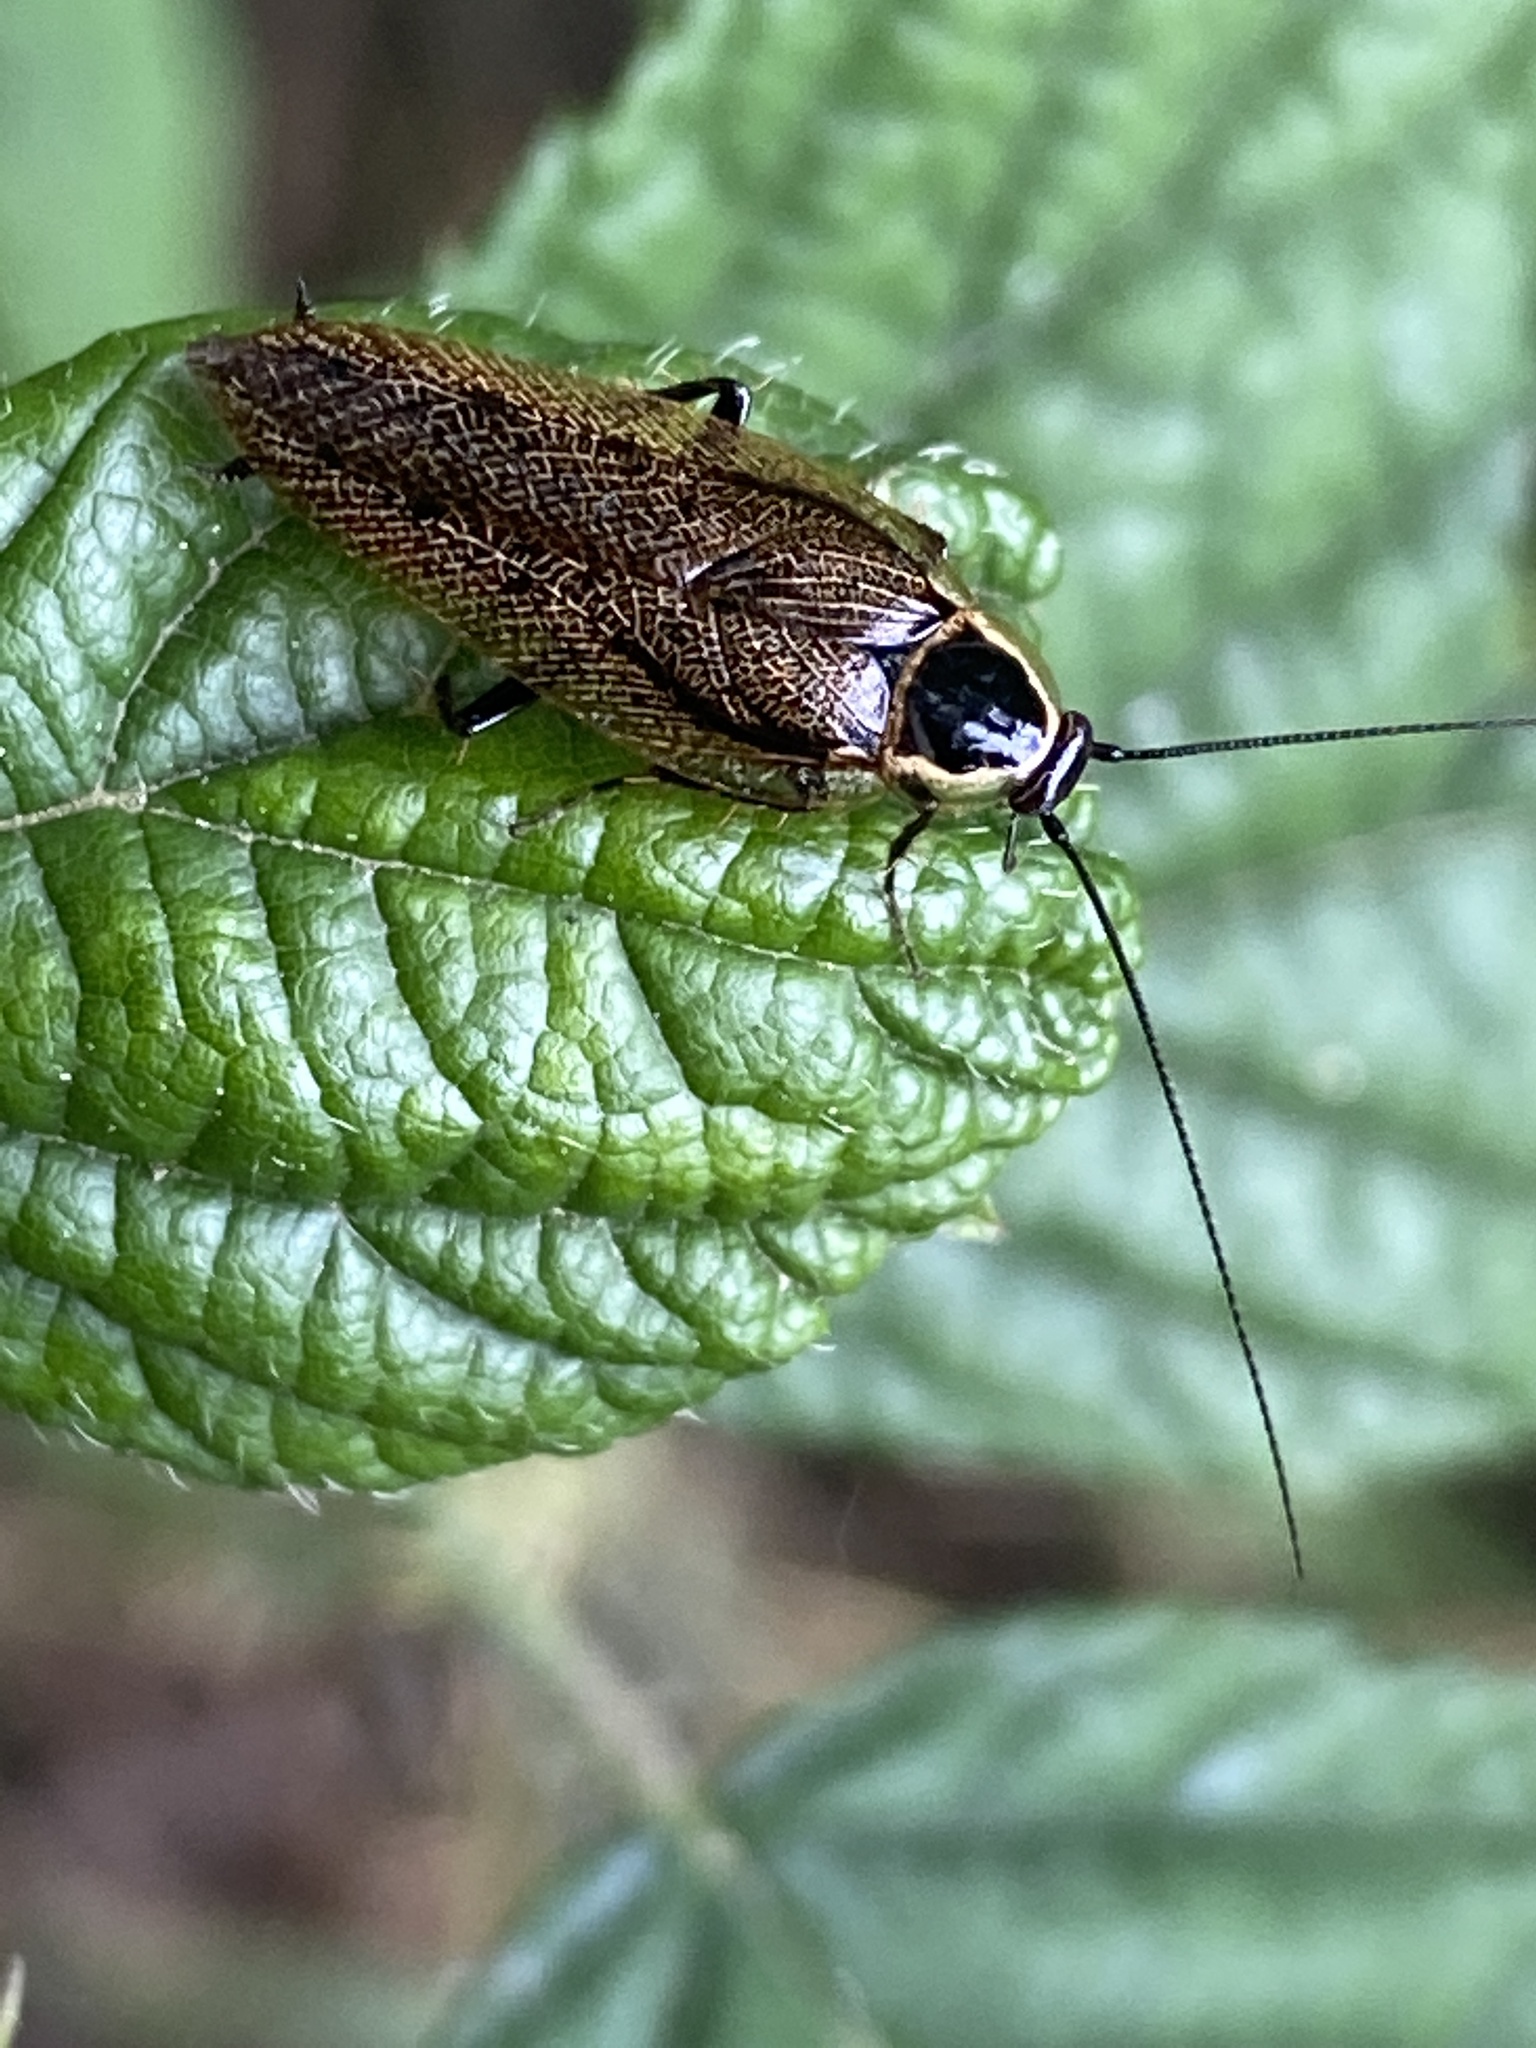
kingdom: Animalia
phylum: Arthropoda
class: Insecta
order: Blattodea
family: Ectobiidae
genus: Ectobius
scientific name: Ectobius sylvestris
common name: Forest cockroach
